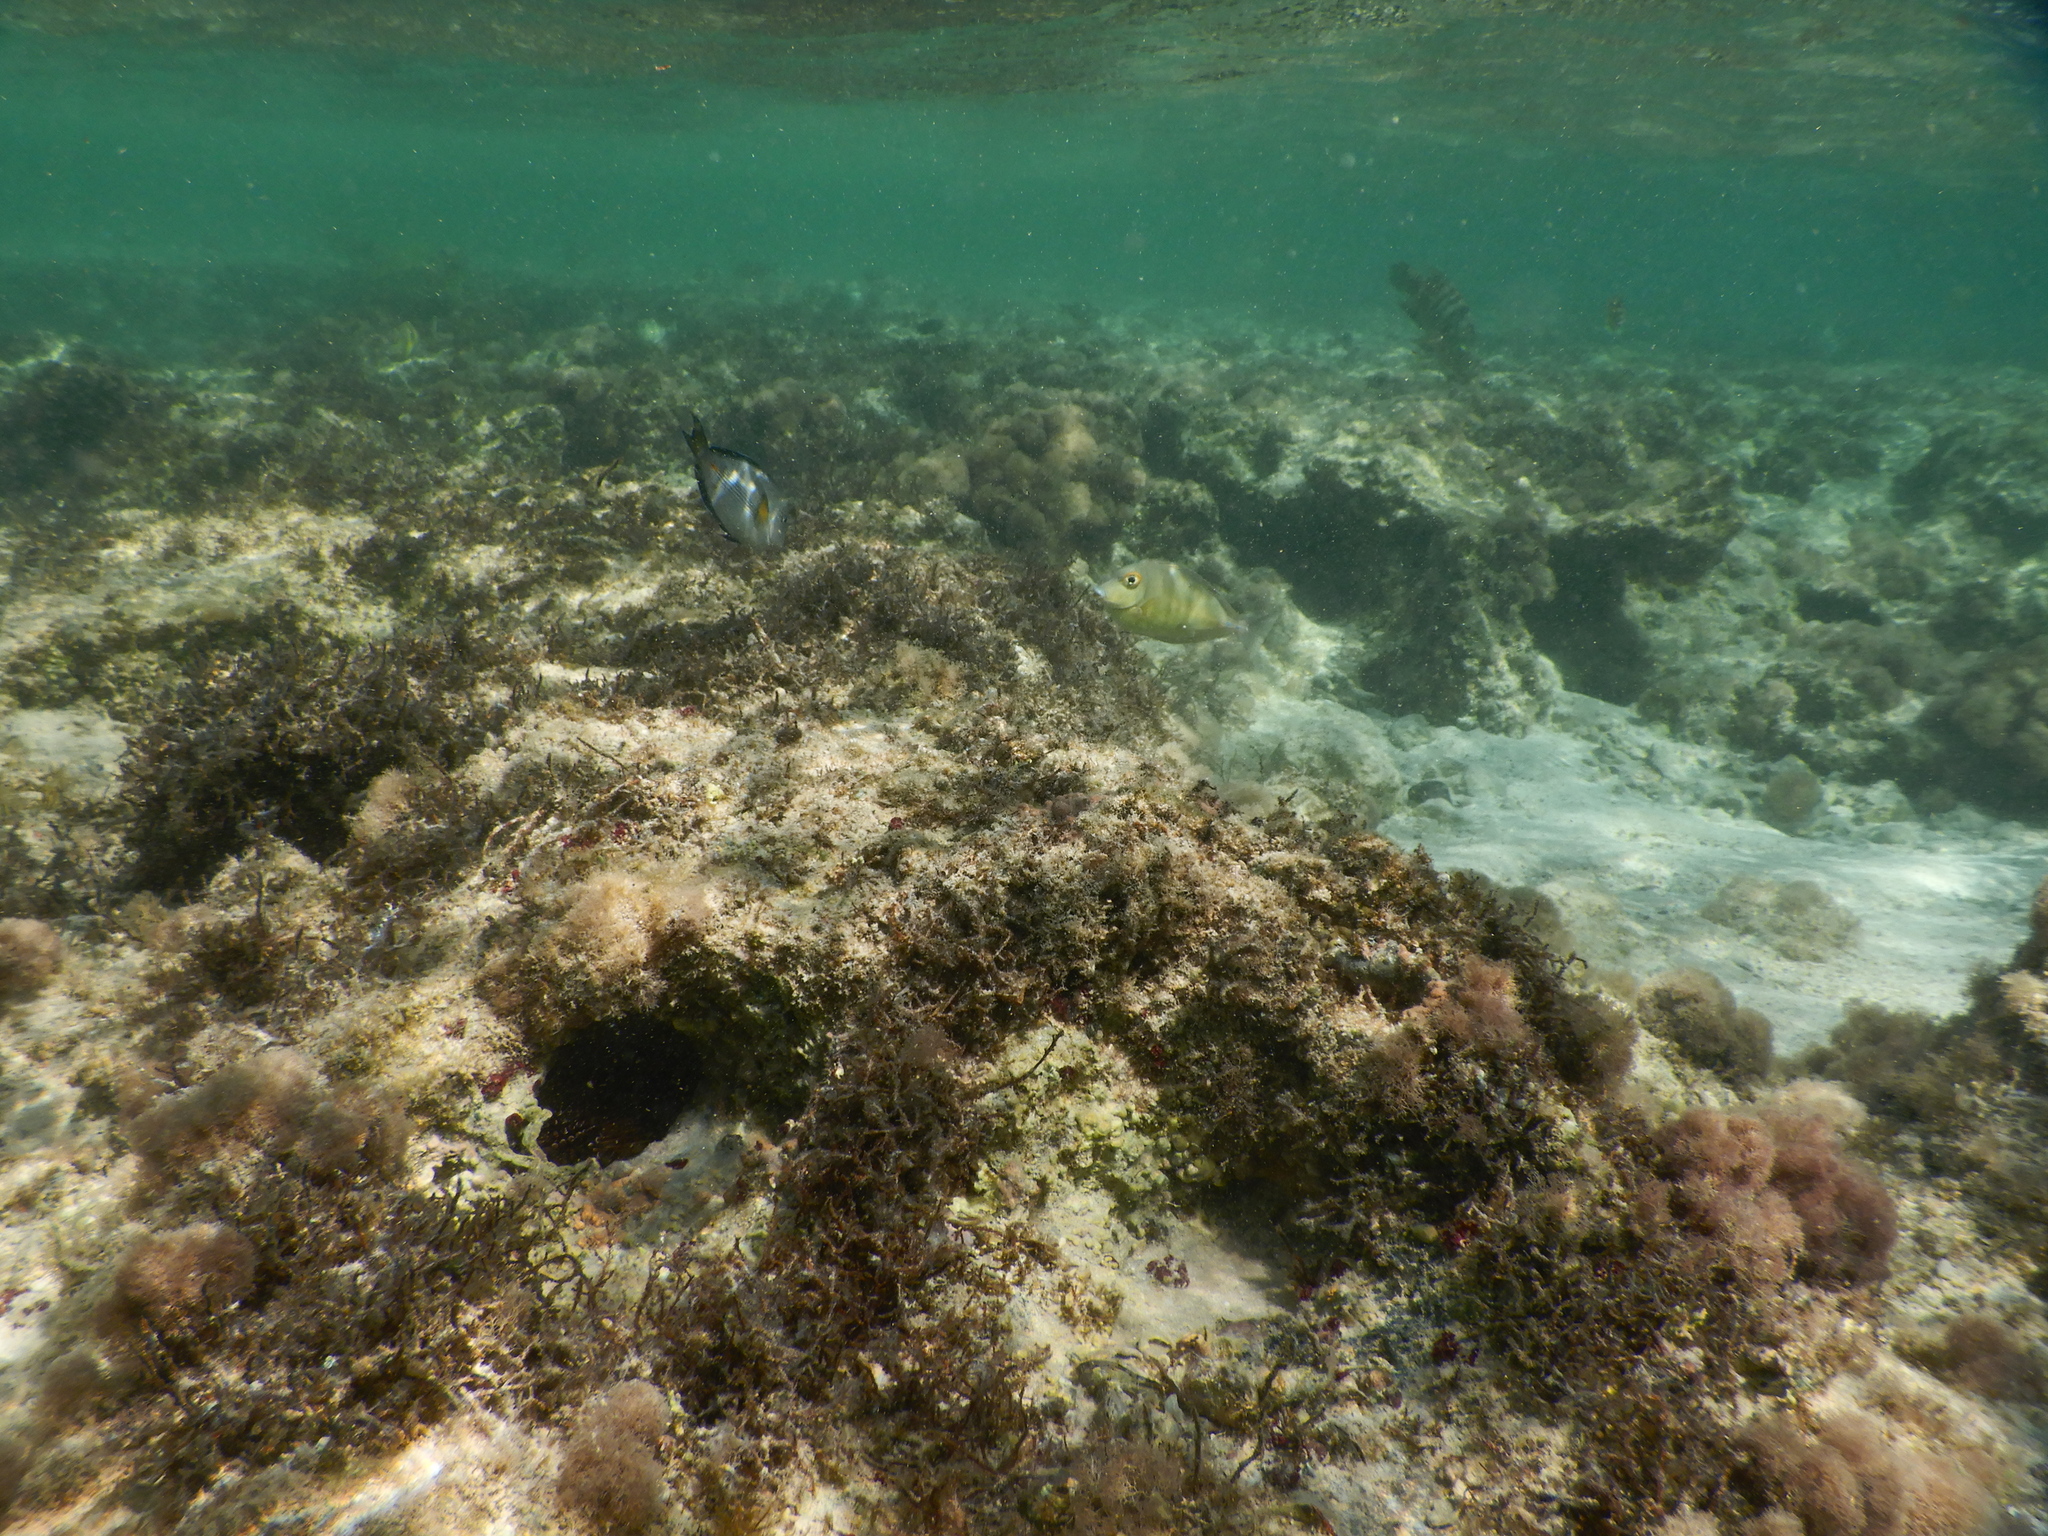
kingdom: Animalia
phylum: Chordata
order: Perciformes
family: Acanthuridae
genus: Naso
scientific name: Naso unicornis
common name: Bluespine unicornfish
